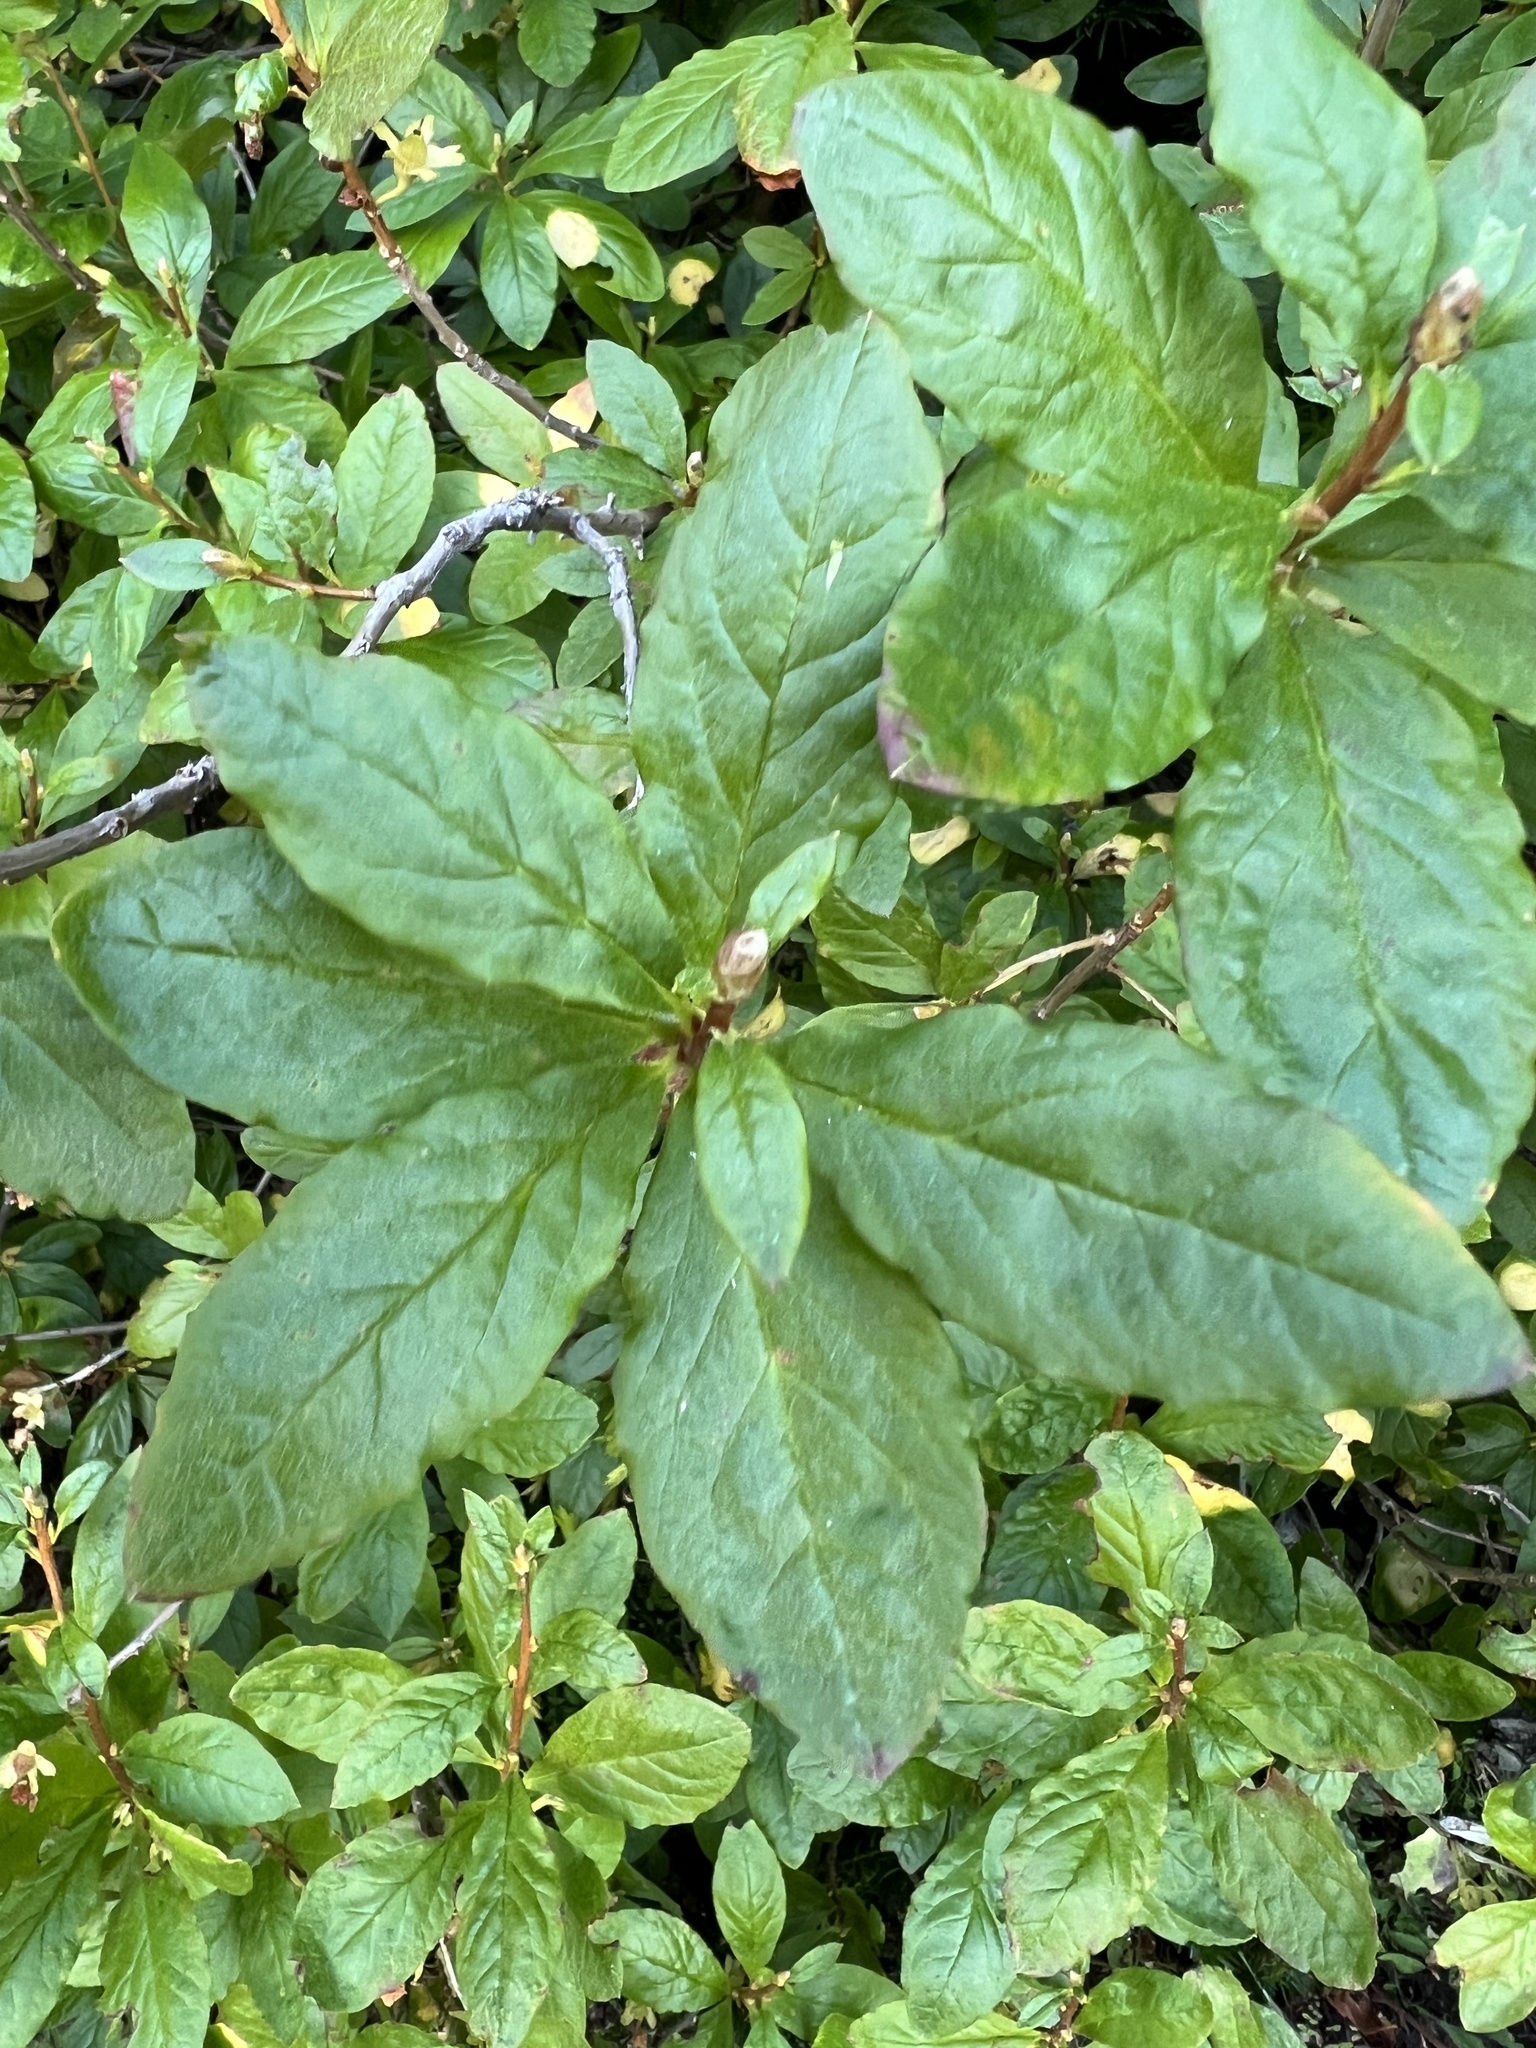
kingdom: Plantae
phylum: Tracheophyta
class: Magnoliopsida
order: Ericales
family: Ericaceae
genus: Rhododendron
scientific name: Rhododendron albiflorum
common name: White rhododendron
